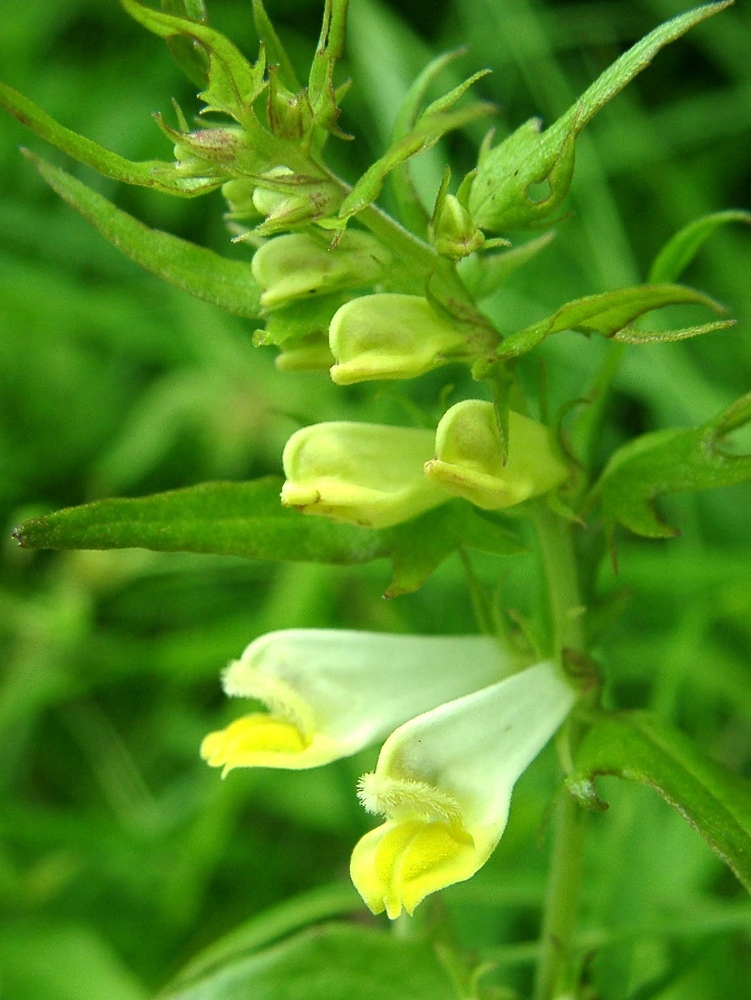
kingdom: Plantae
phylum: Tracheophyta
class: Magnoliopsida
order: Lamiales
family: Orobanchaceae
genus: Melampyrum
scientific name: Melampyrum pratense
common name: Common cow-wheat
